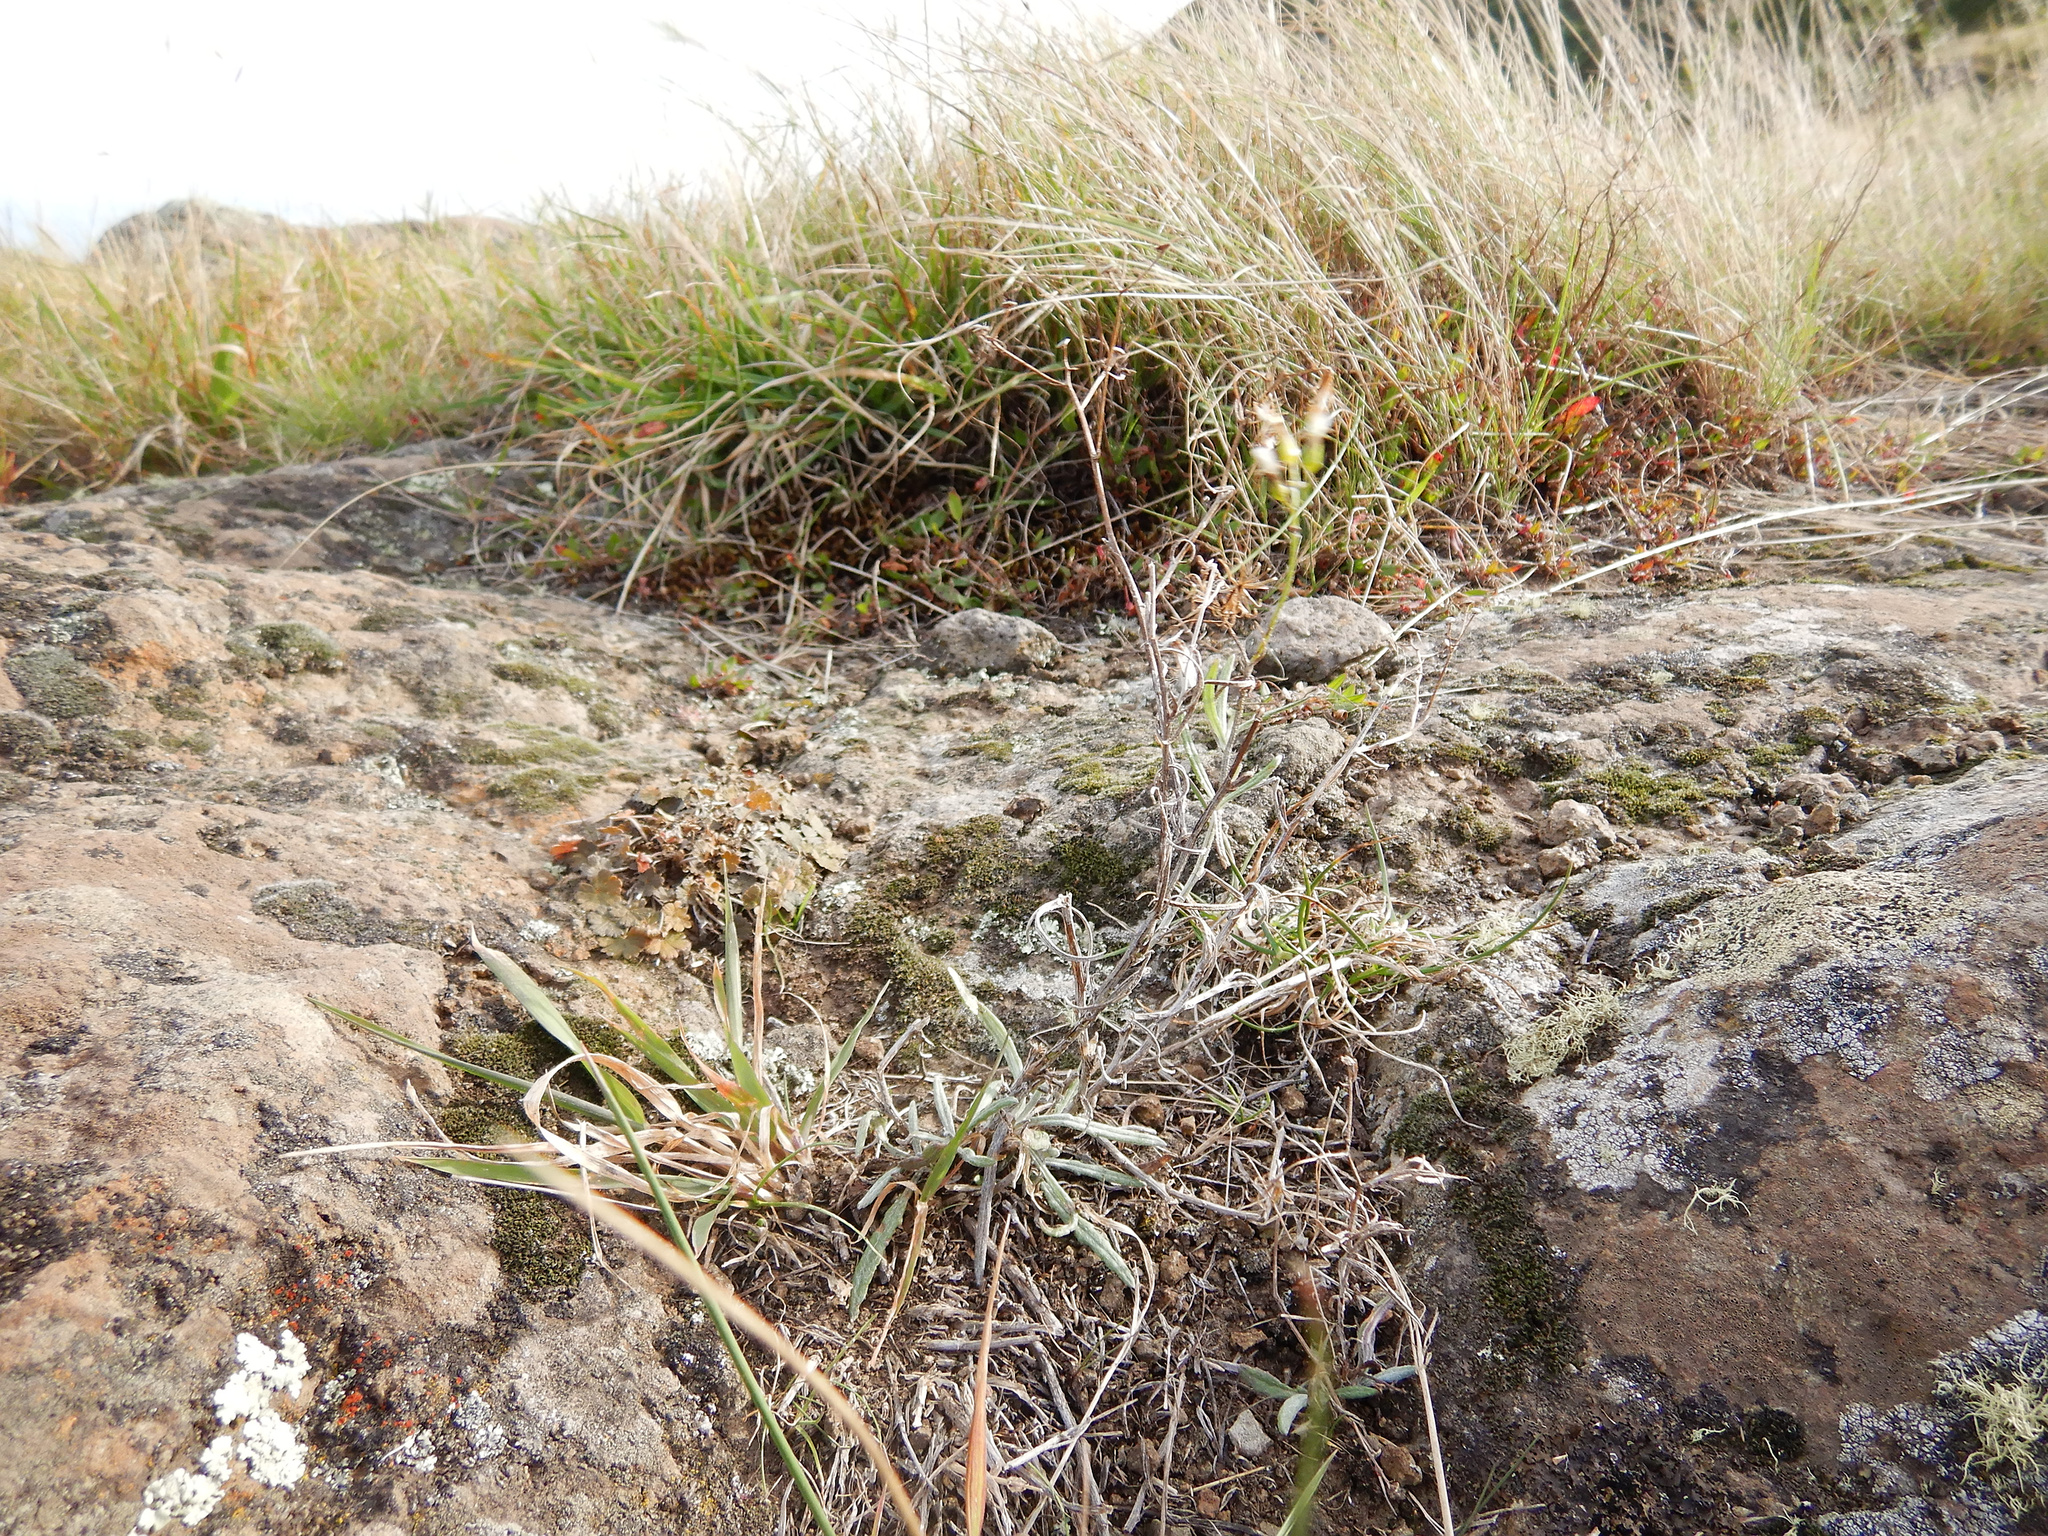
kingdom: Plantae
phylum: Tracheophyta
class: Magnoliopsida
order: Asterales
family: Asteraceae
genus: Senecio
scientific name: Senecio quadridentatus
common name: Cotton fireweed
